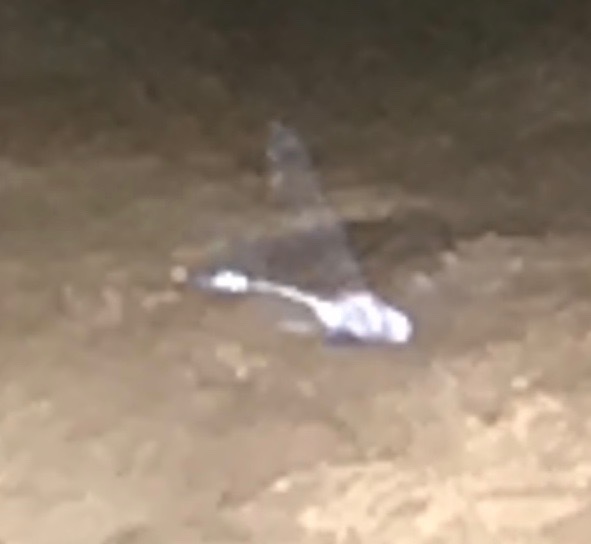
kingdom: Animalia
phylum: Arthropoda
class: Insecta
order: Odonata
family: Libellulidae
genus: Brechmorhoga
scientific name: Brechmorhoga mendax
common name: Pale-faced clubskimmer
